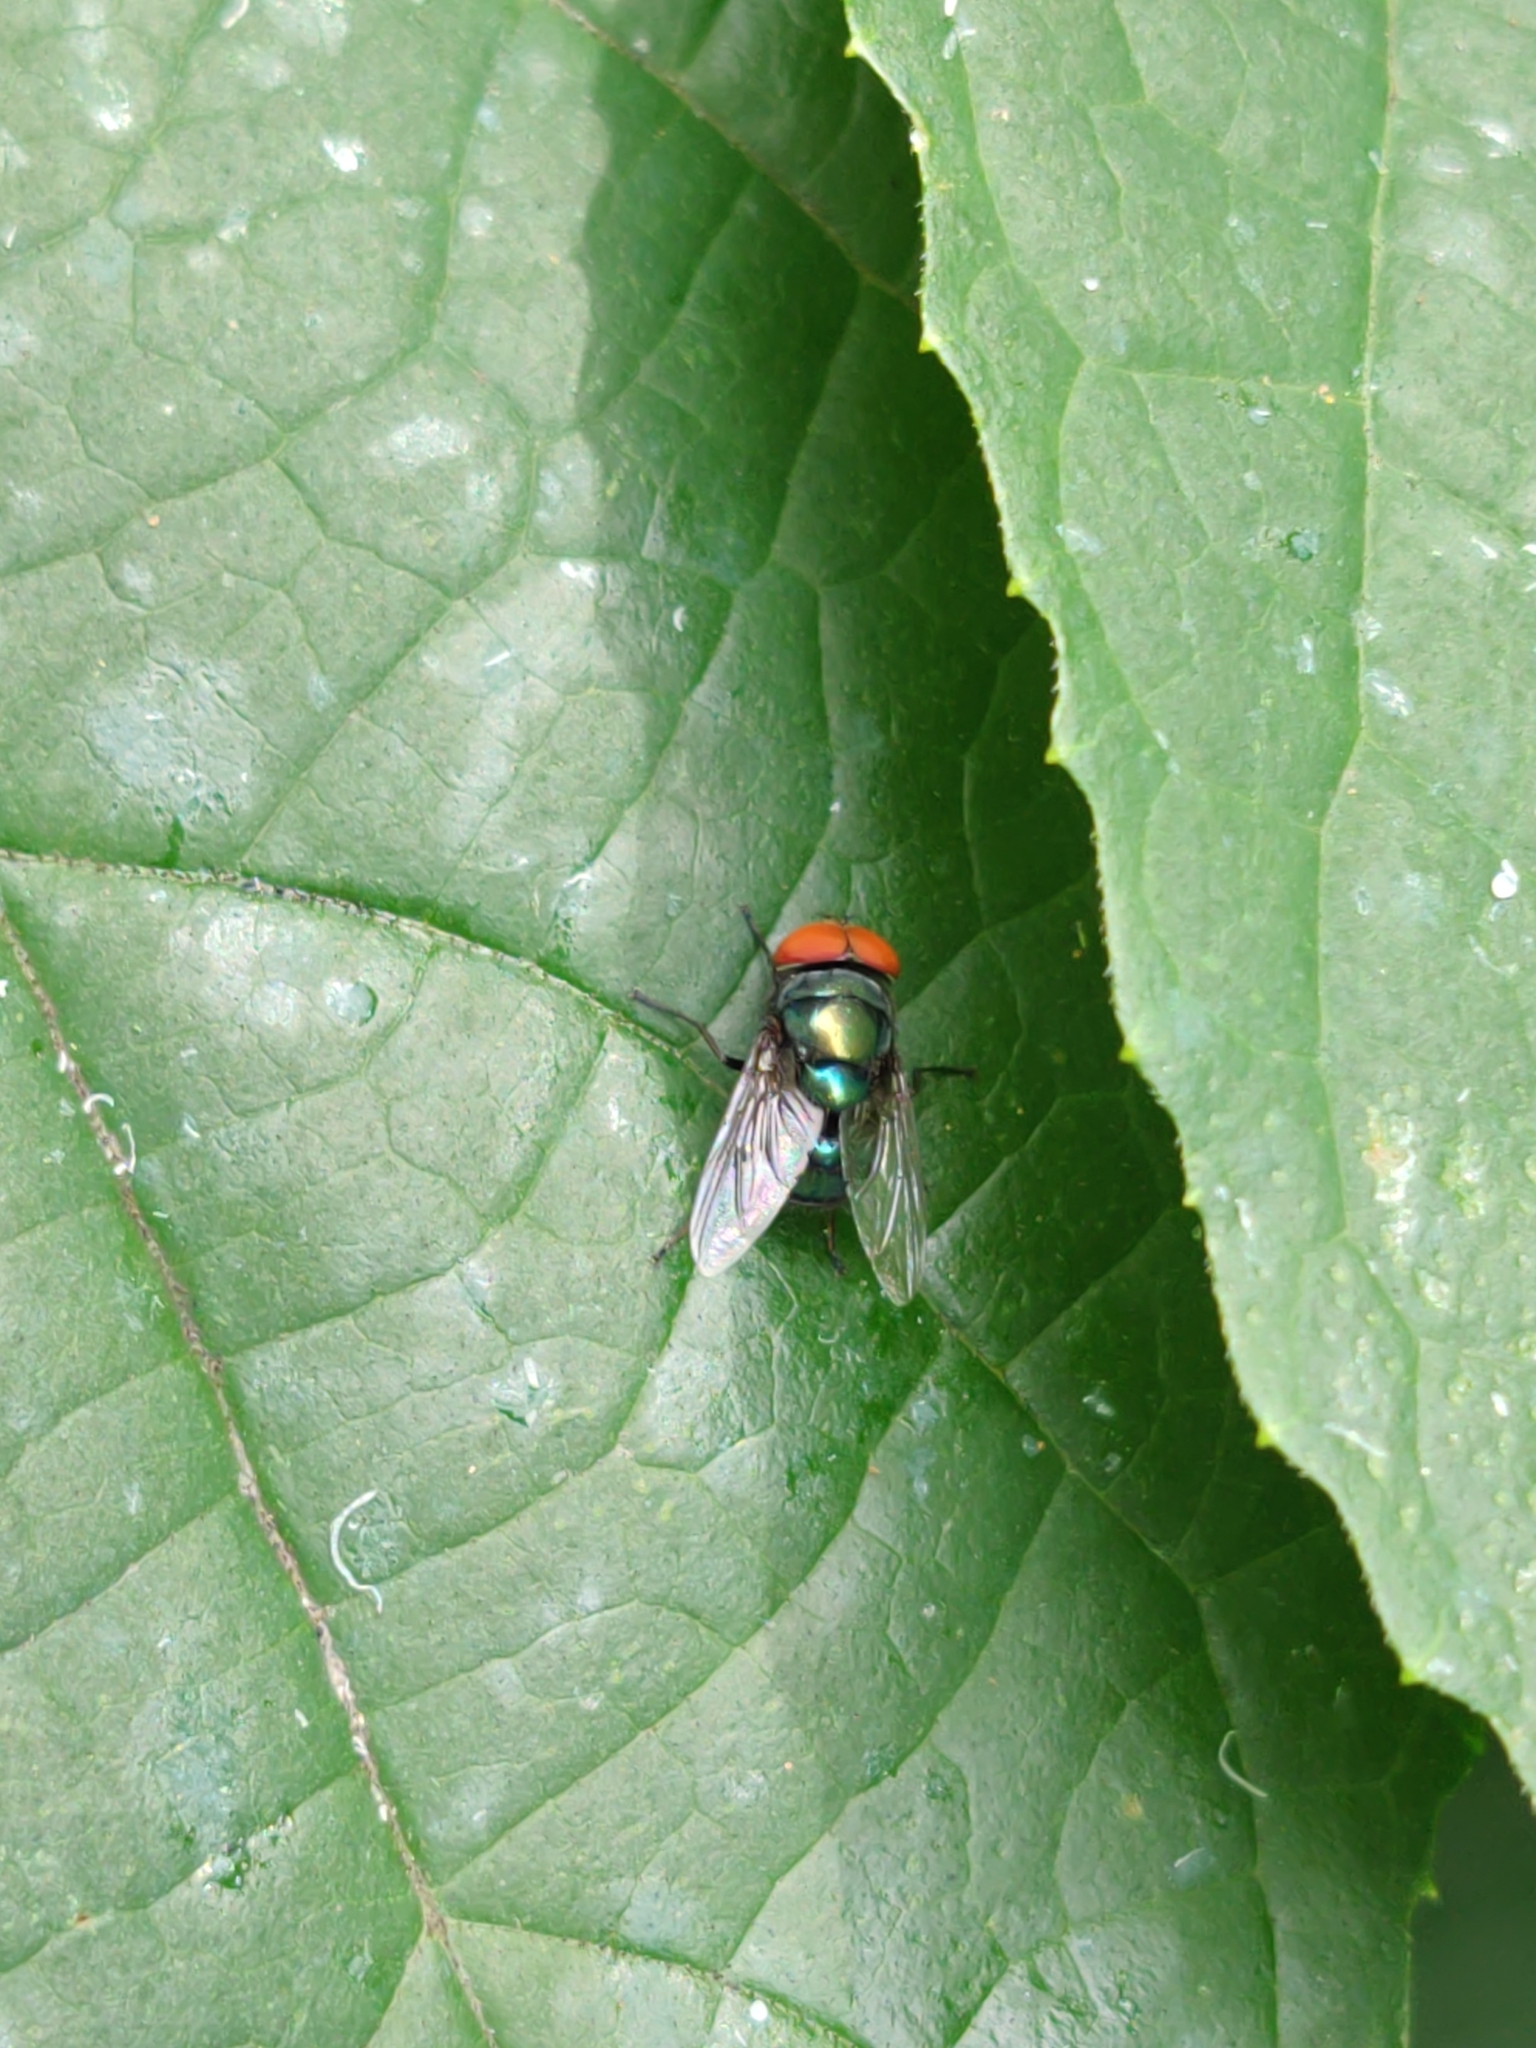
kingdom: Animalia
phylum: Arthropoda
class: Insecta
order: Diptera
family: Calliphoridae
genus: Chrysomya
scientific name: Chrysomya megacephala
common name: Blow fly
